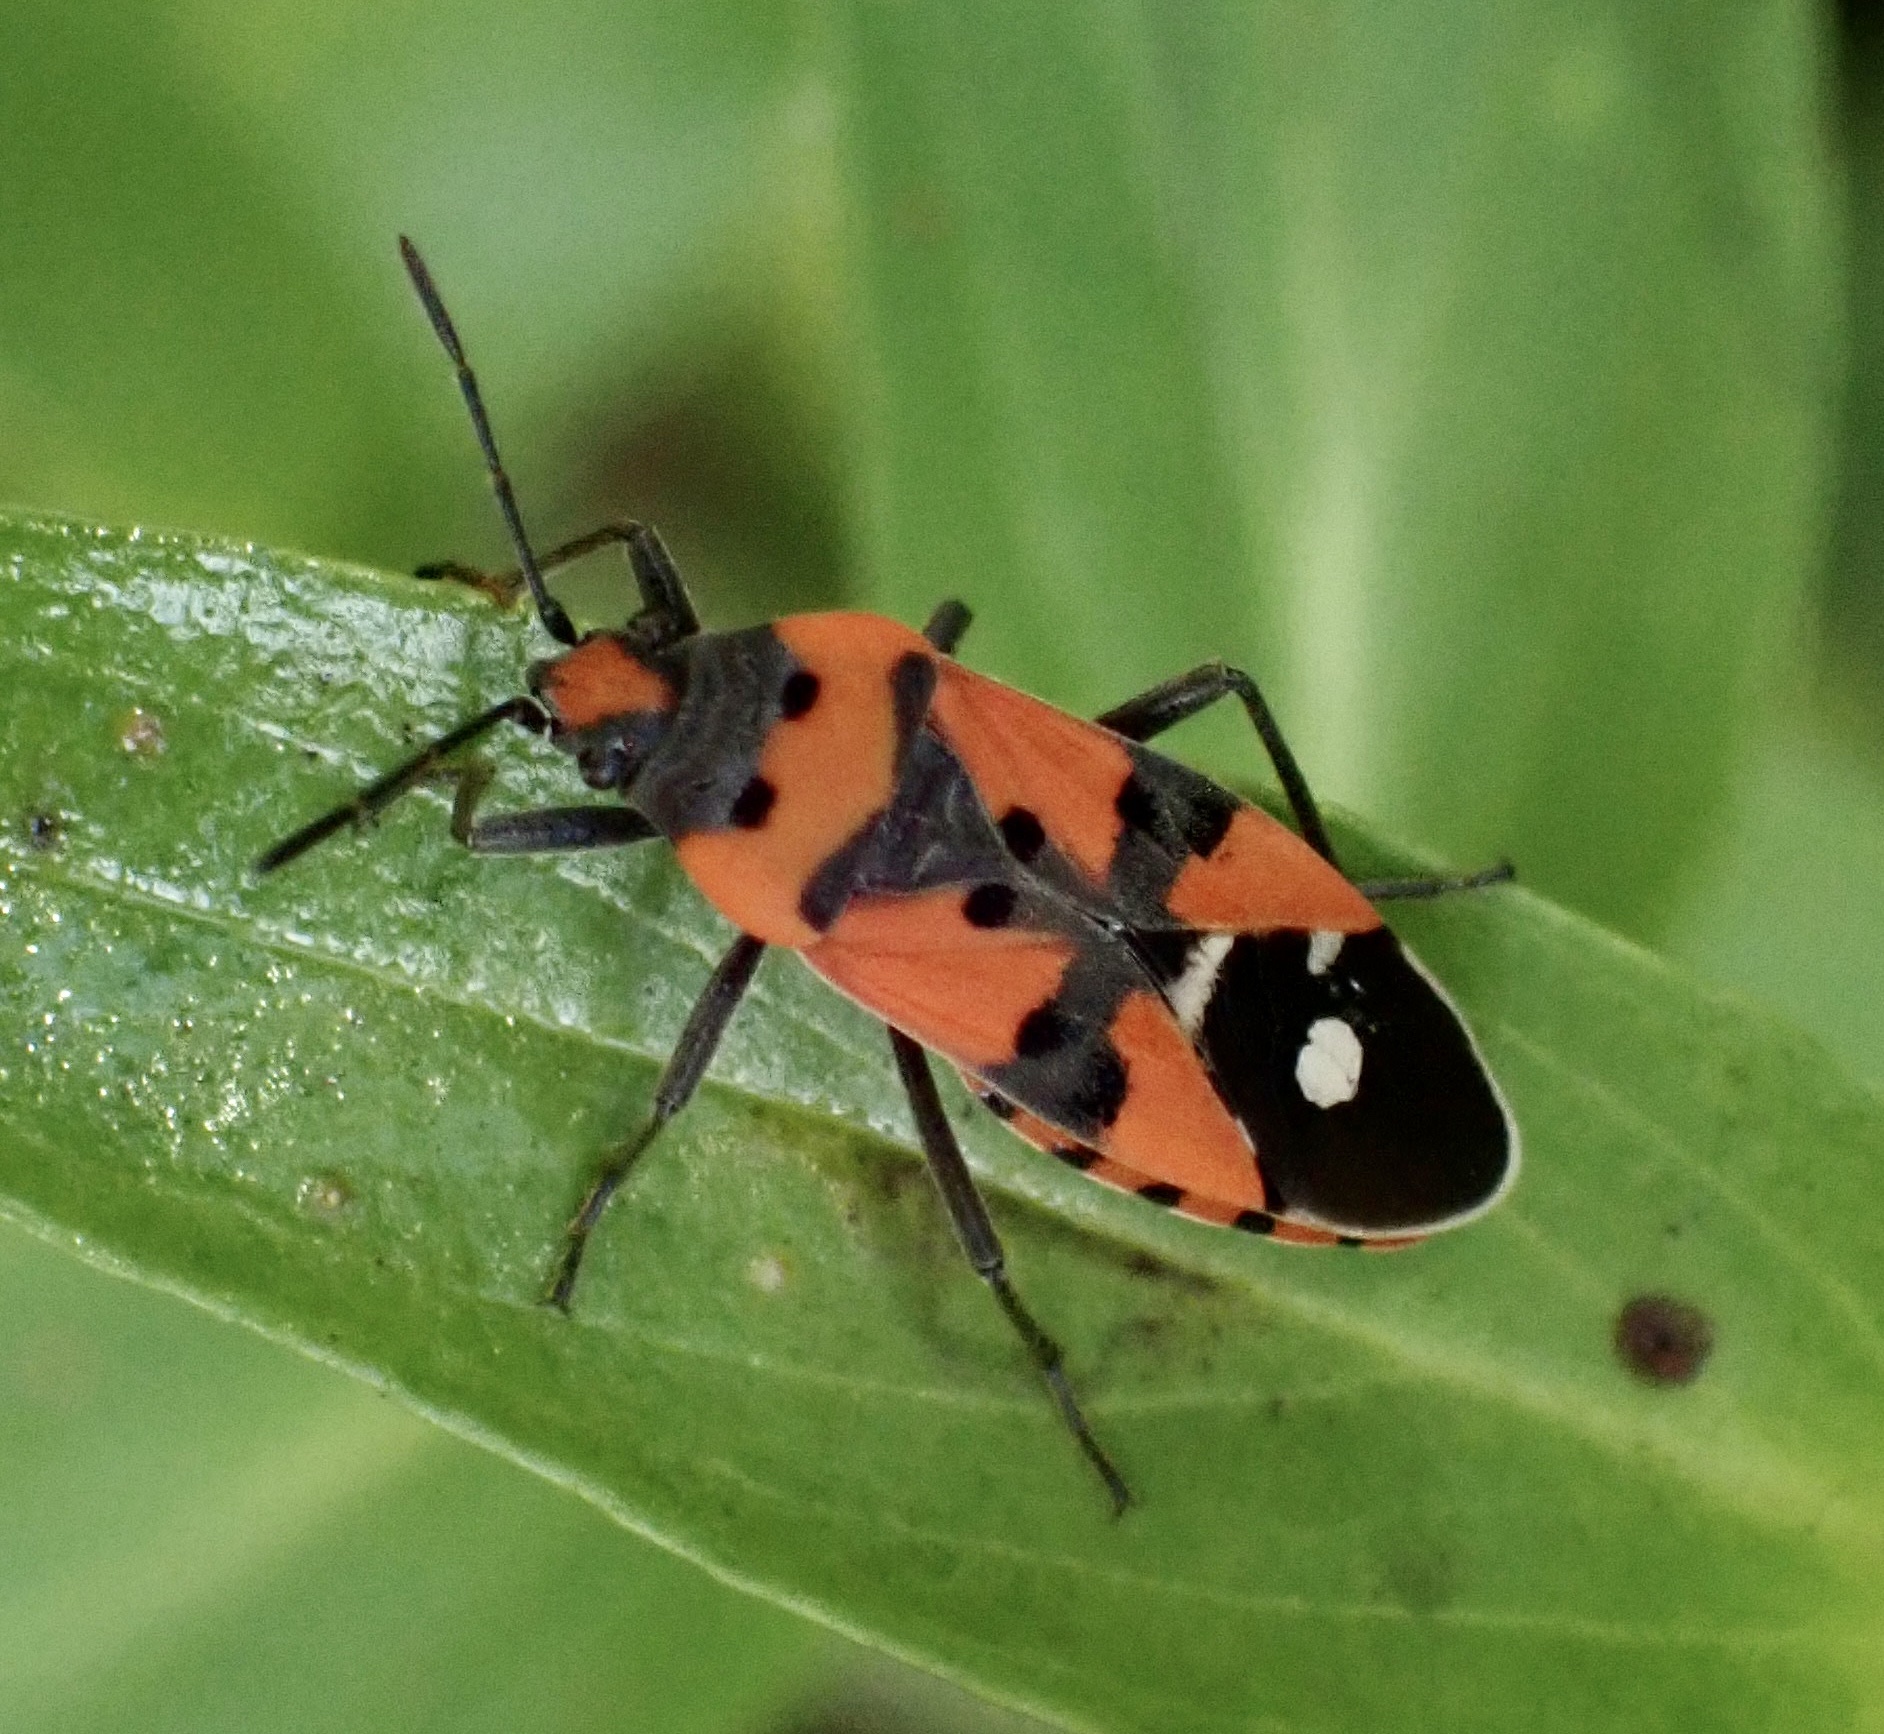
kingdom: Animalia
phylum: Arthropoda
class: Insecta
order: Hemiptera
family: Lygaeidae
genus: Lygaeus
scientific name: Lygaeus equestris
